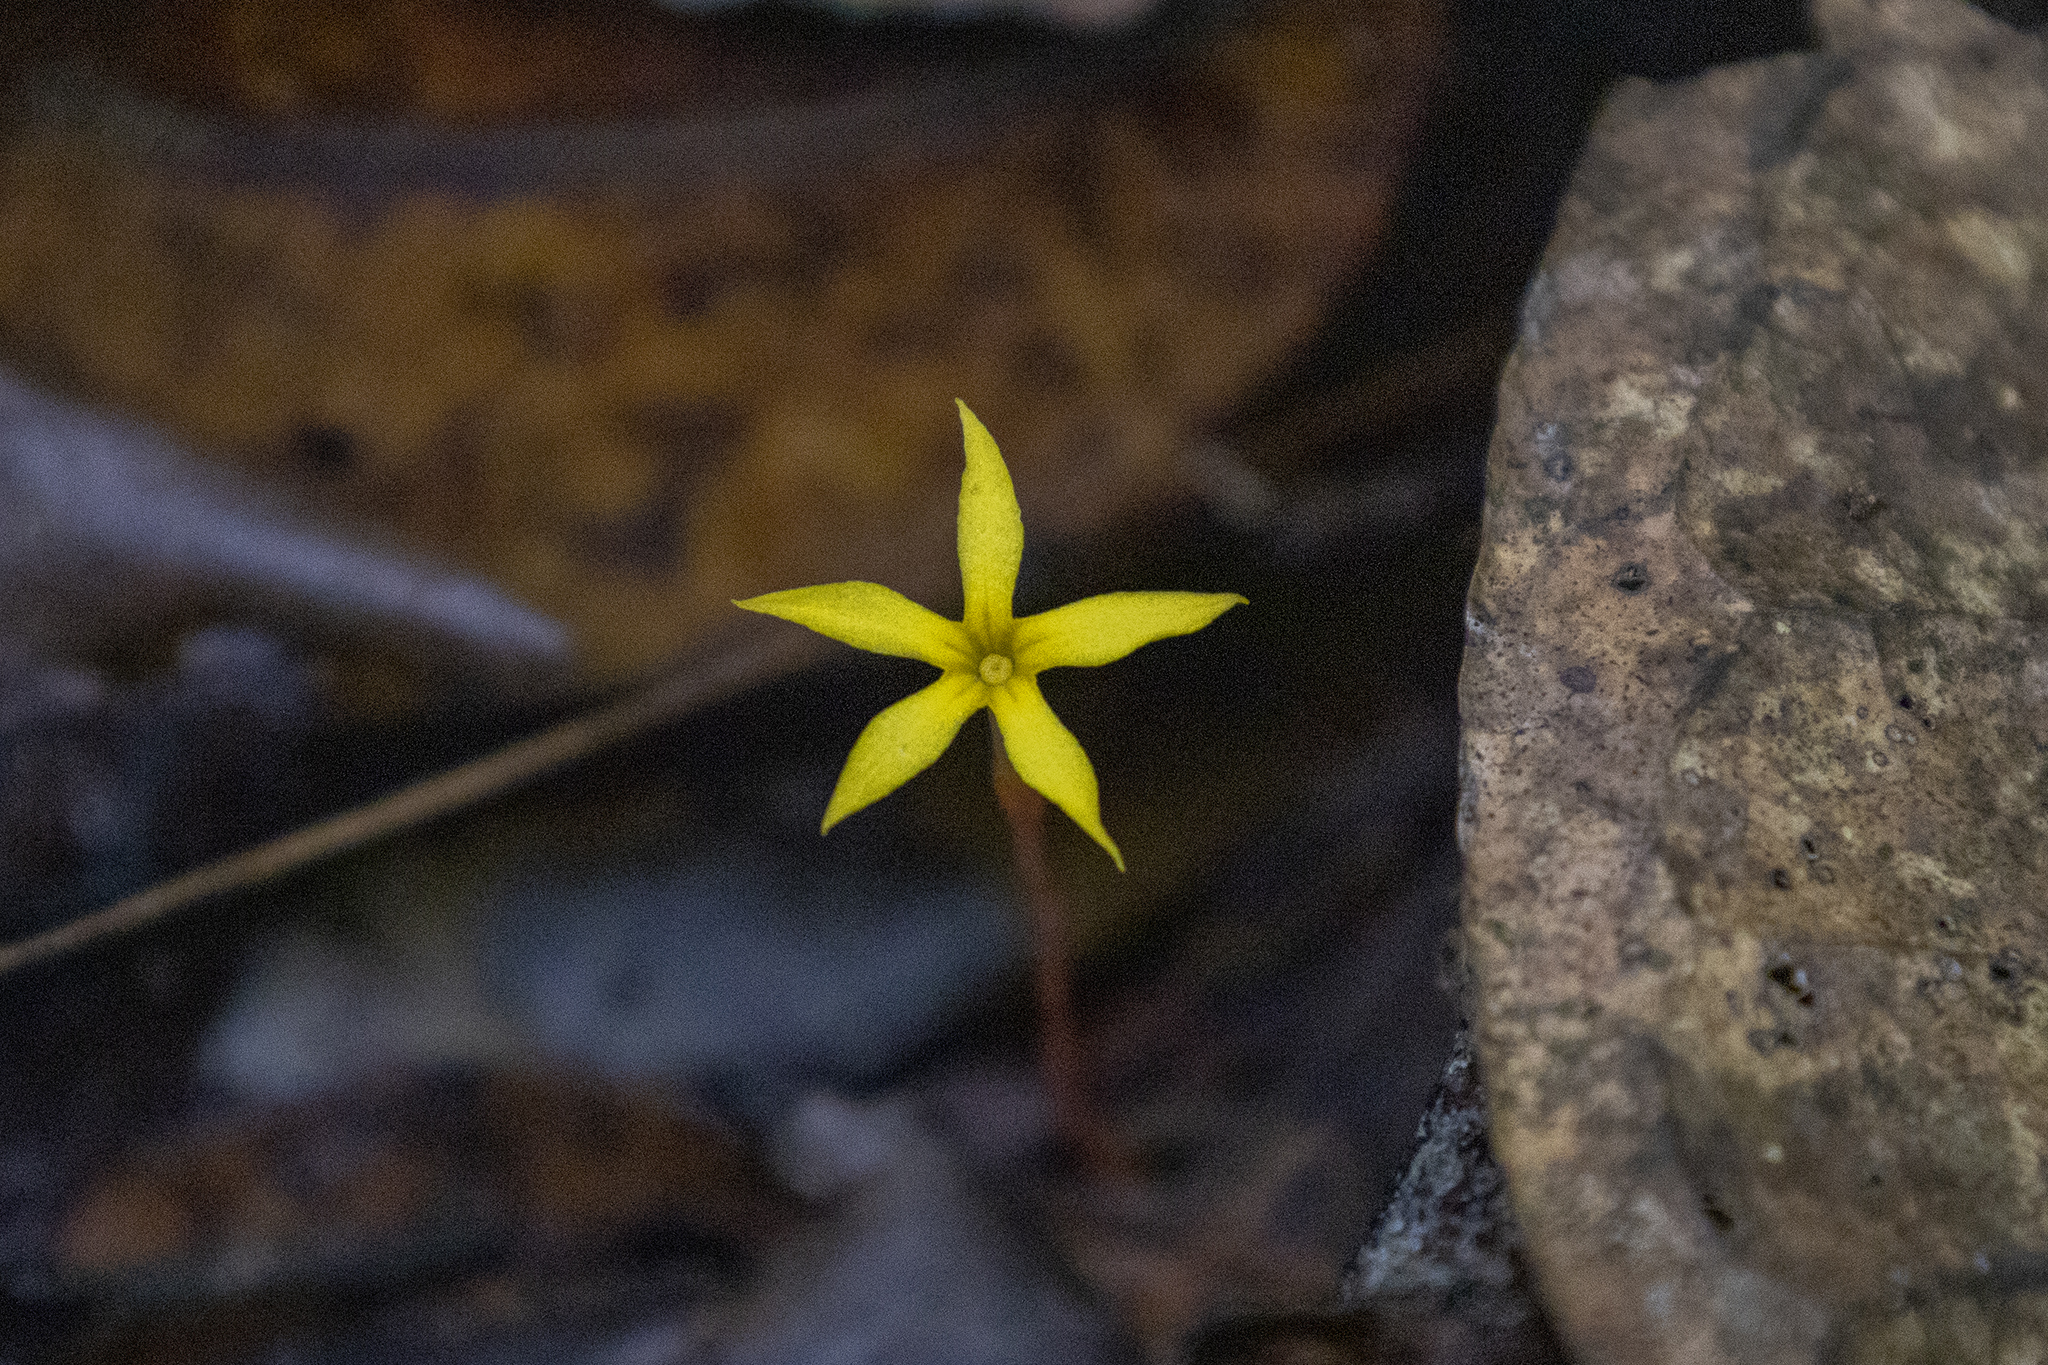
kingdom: Plantae
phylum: Tracheophyta
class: Magnoliopsida
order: Gentianales
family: Gentianaceae
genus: Voyria
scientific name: Voyria aphylla
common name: Leafless ghost plant
